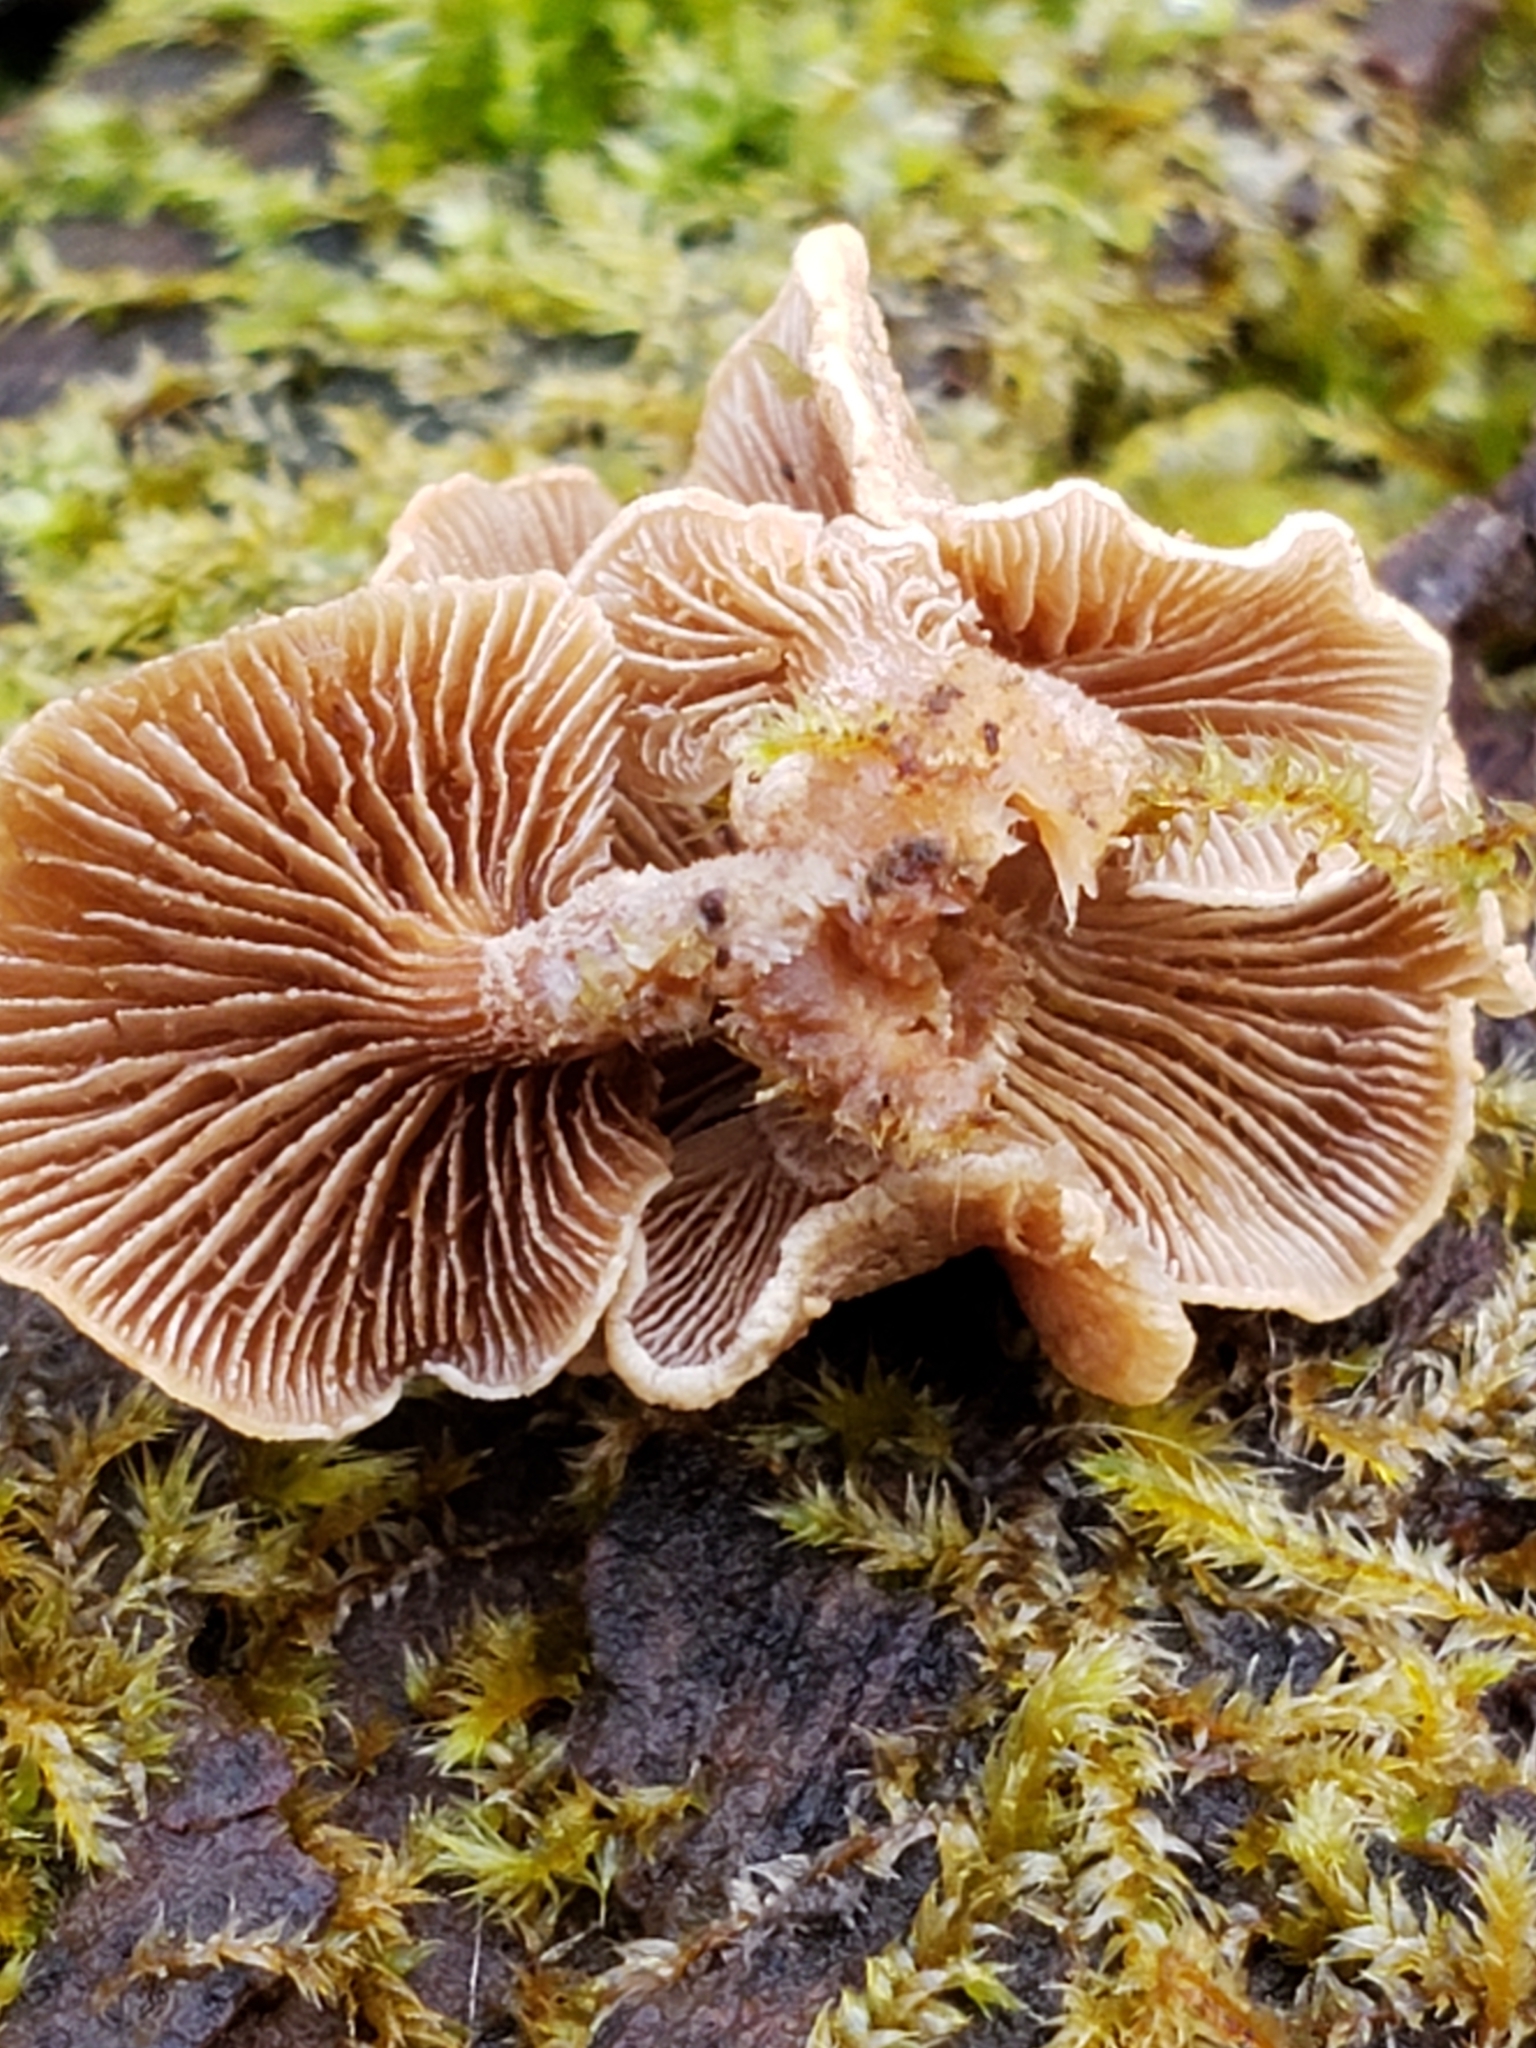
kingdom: Fungi
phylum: Basidiomycota
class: Agaricomycetes
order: Agaricales
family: Mycenaceae
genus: Panellus
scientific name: Panellus stipticus
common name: Bitter oysterling
